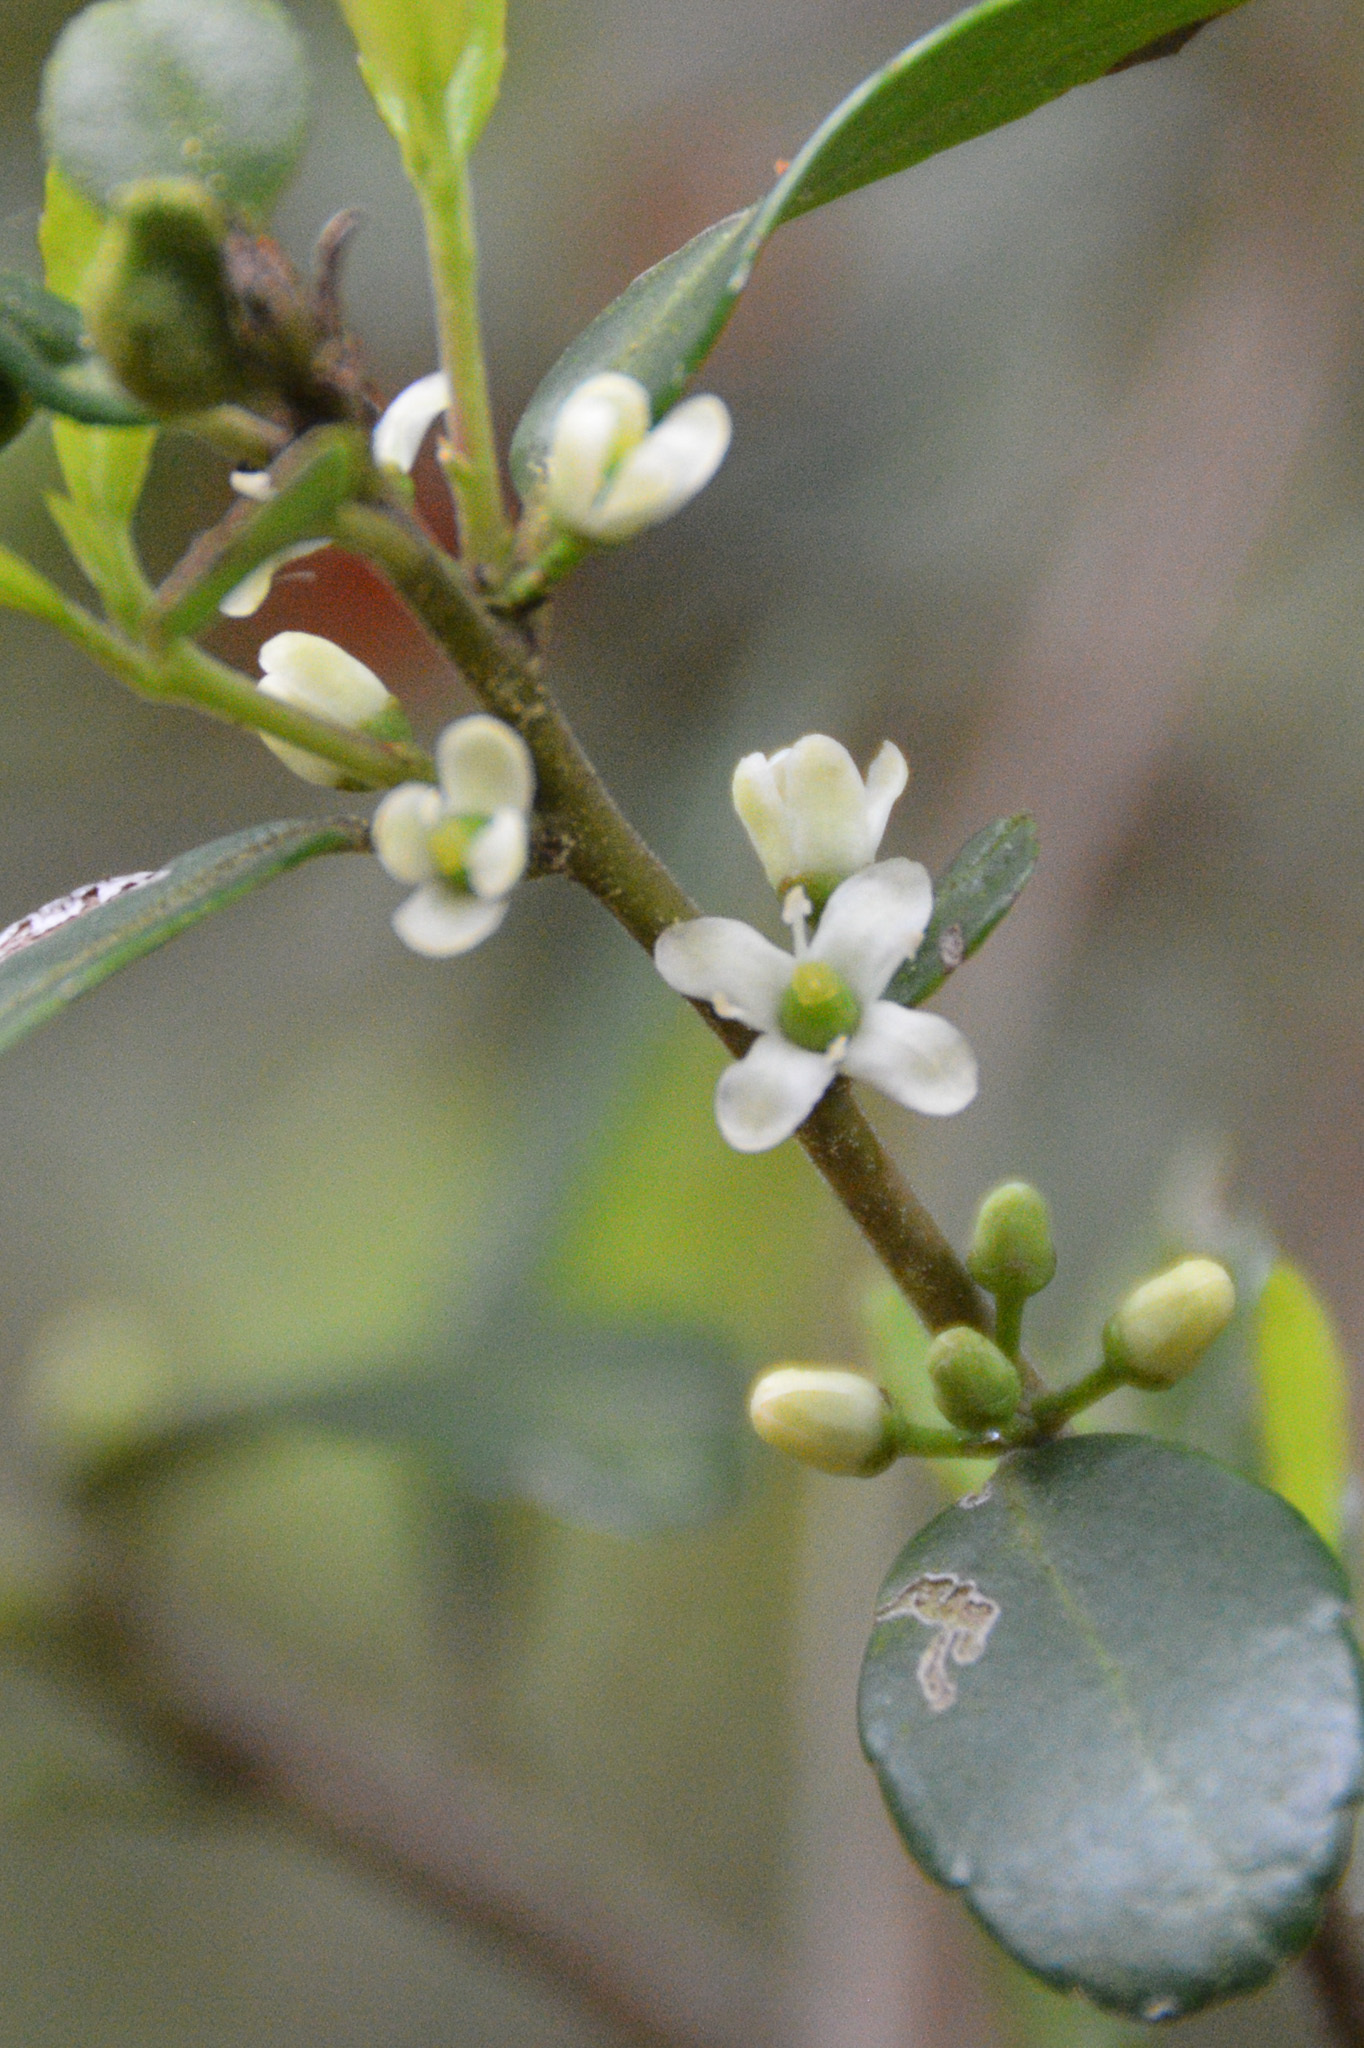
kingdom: Plantae
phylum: Tracheophyta
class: Magnoliopsida
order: Aquifoliales
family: Aquifoliaceae
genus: Ilex
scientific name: Ilex vomitoria
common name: Yaupon holly
